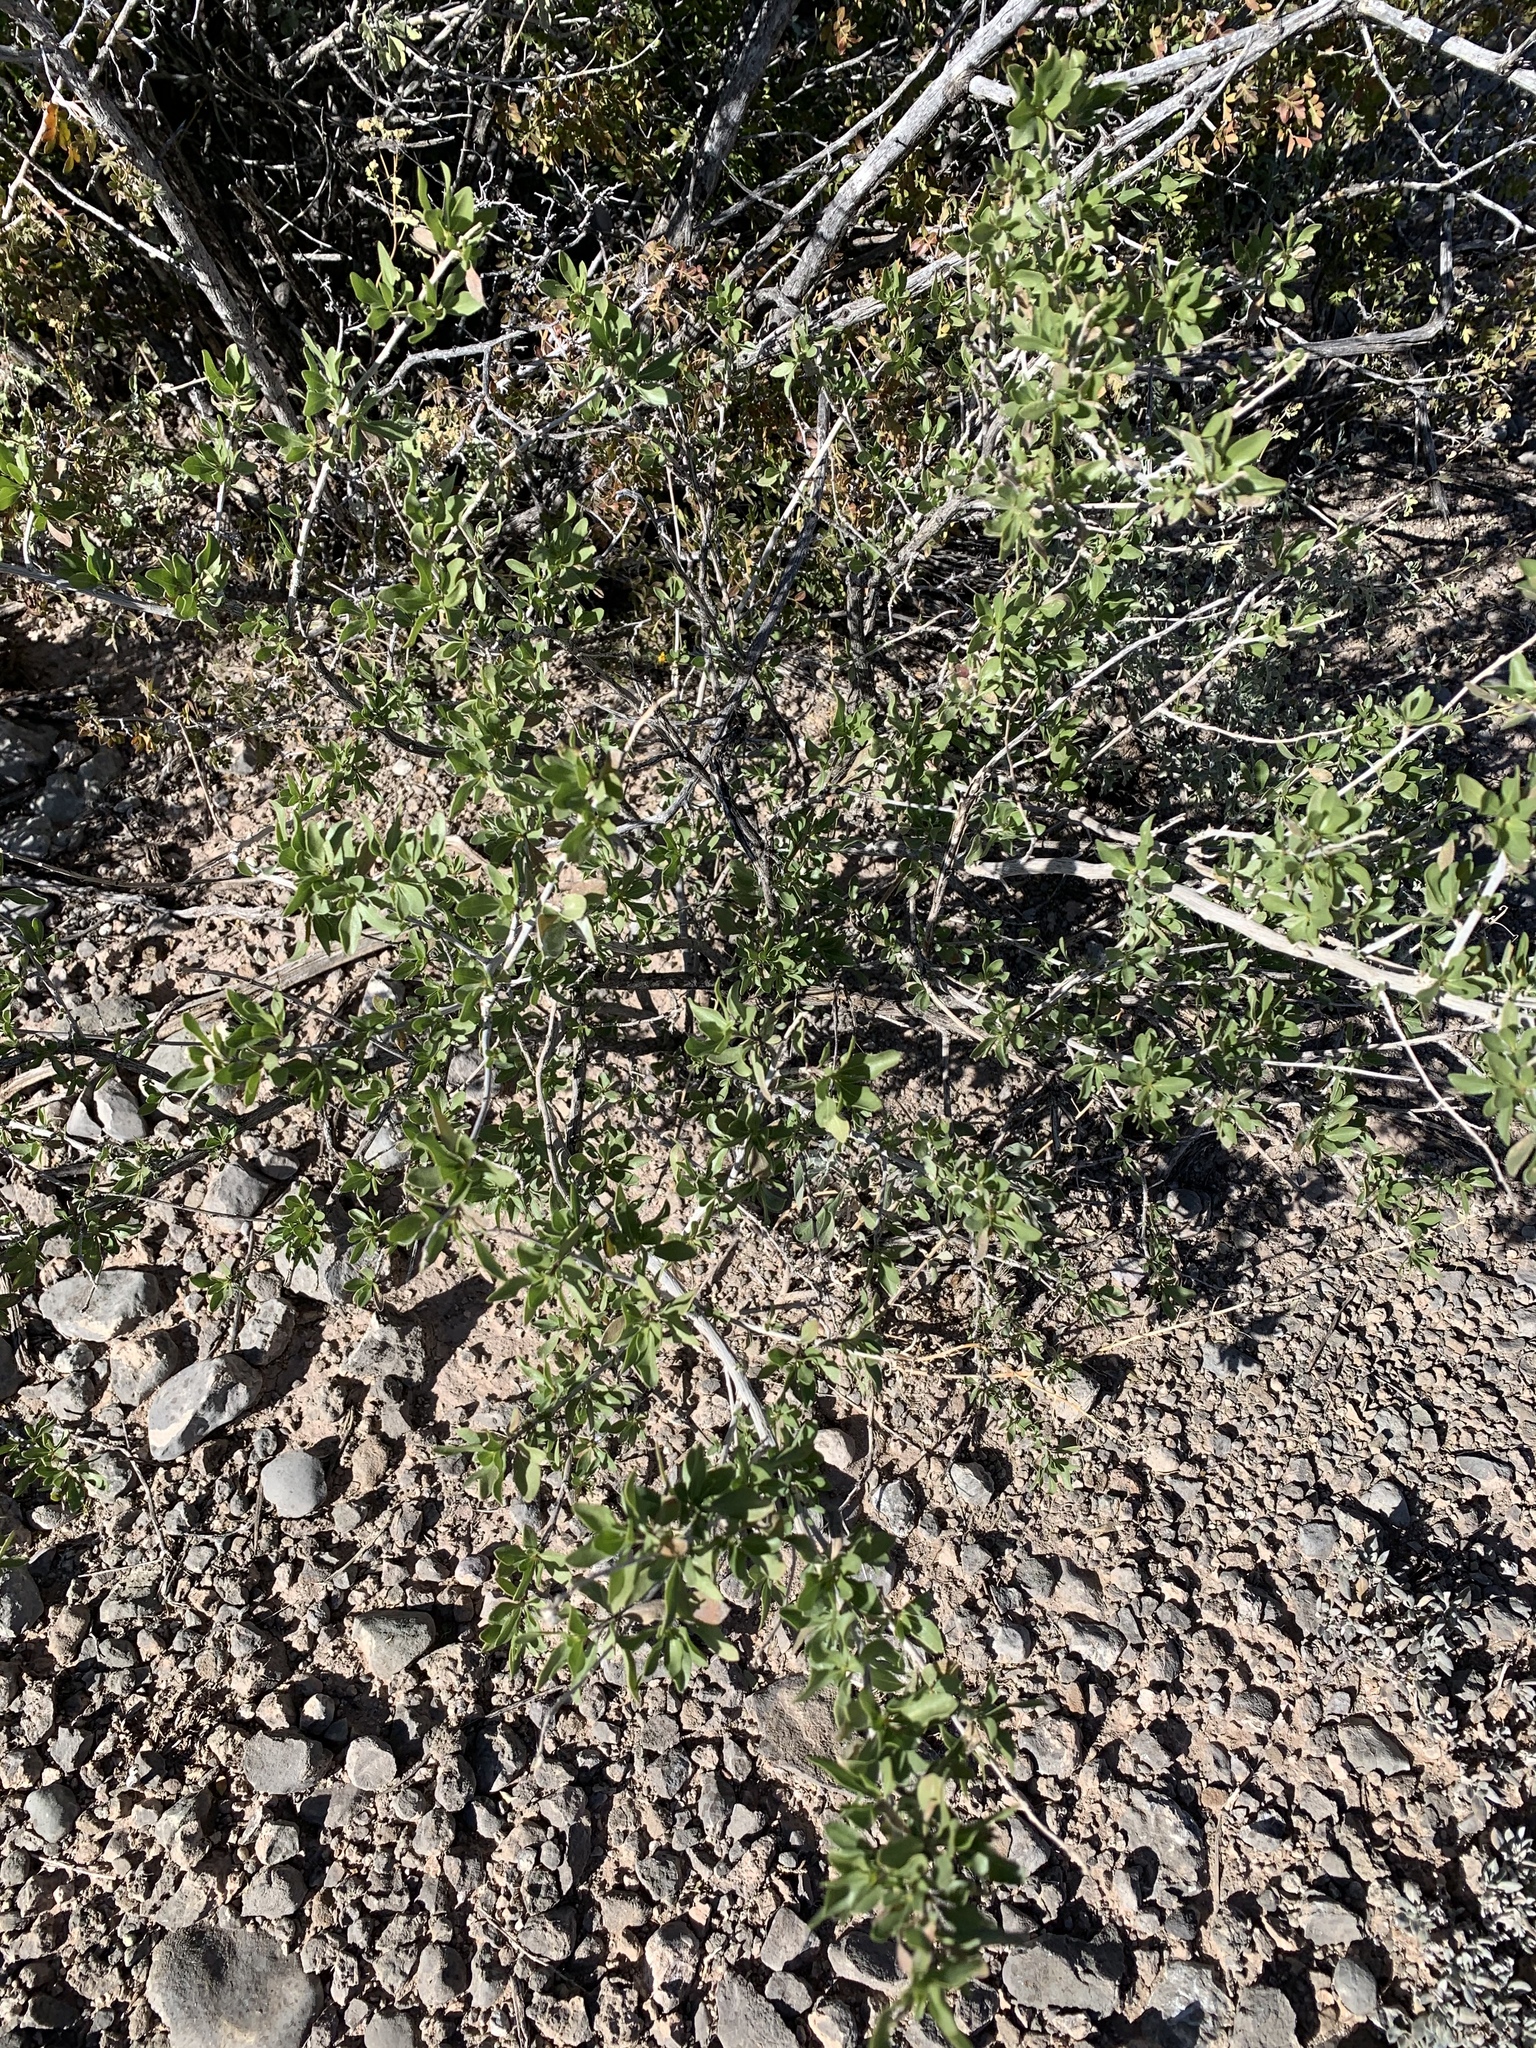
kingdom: Plantae
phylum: Tracheophyta
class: Magnoliopsida
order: Asterales
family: Asteraceae
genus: Flourensia
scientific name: Flourensia cernua
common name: Varnishbush
